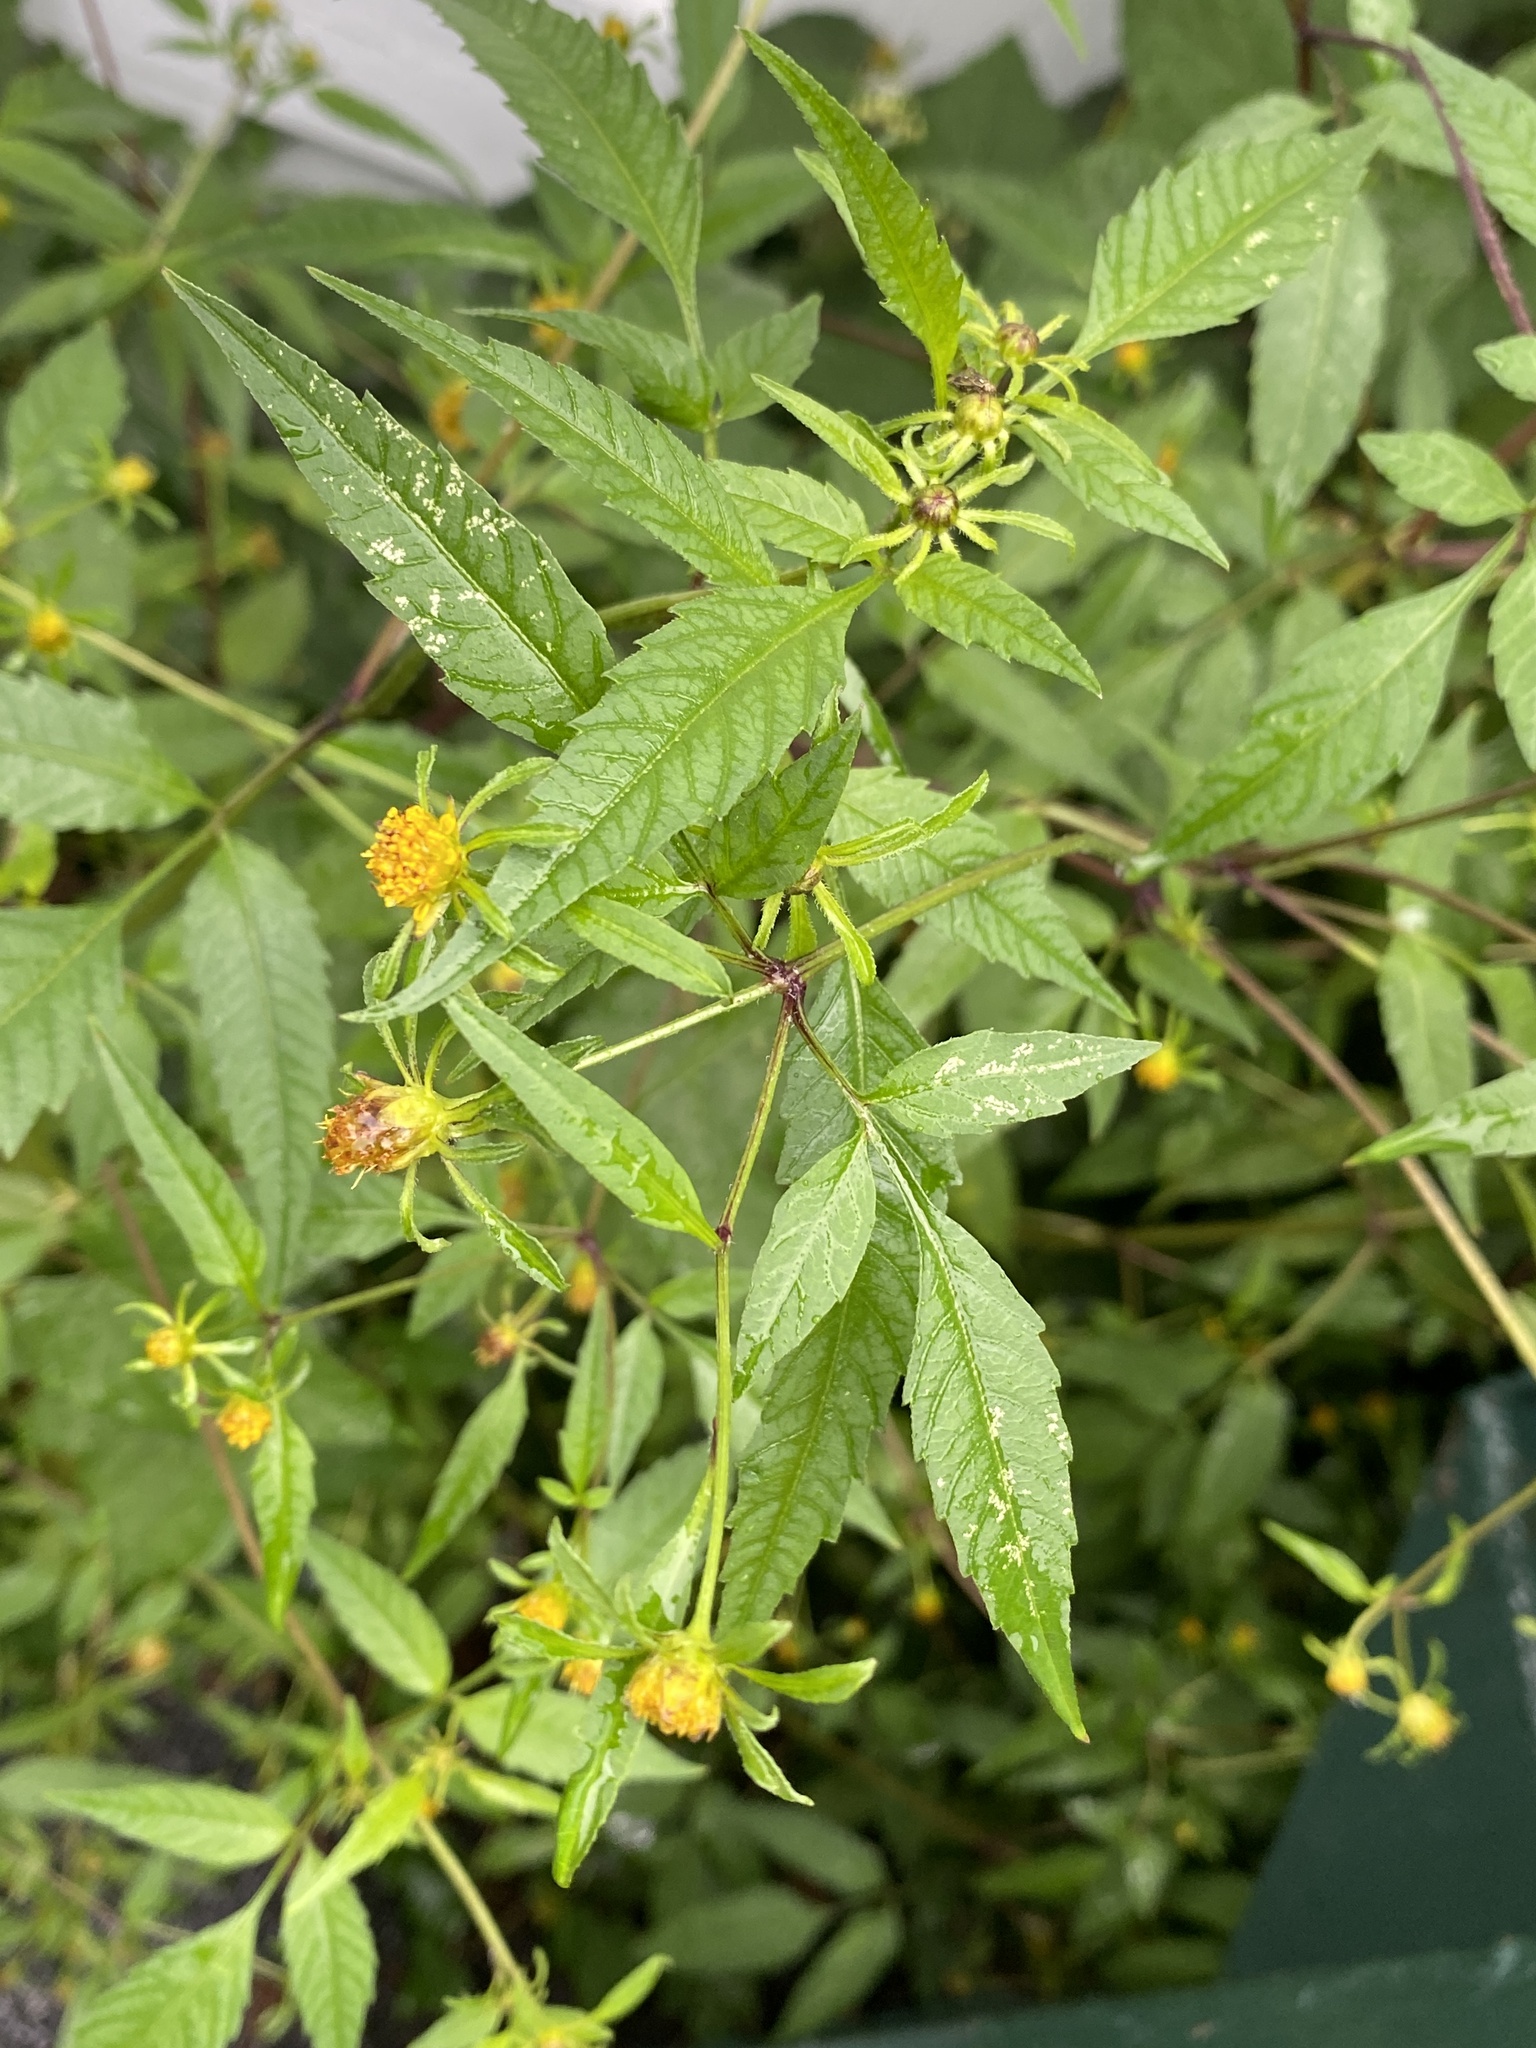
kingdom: Plantae
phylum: Tracheophyta
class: Magnoliopsida
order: Asterales
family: Asteraceae
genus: Bidens
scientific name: Bidens frondosa
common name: Beggarticks
